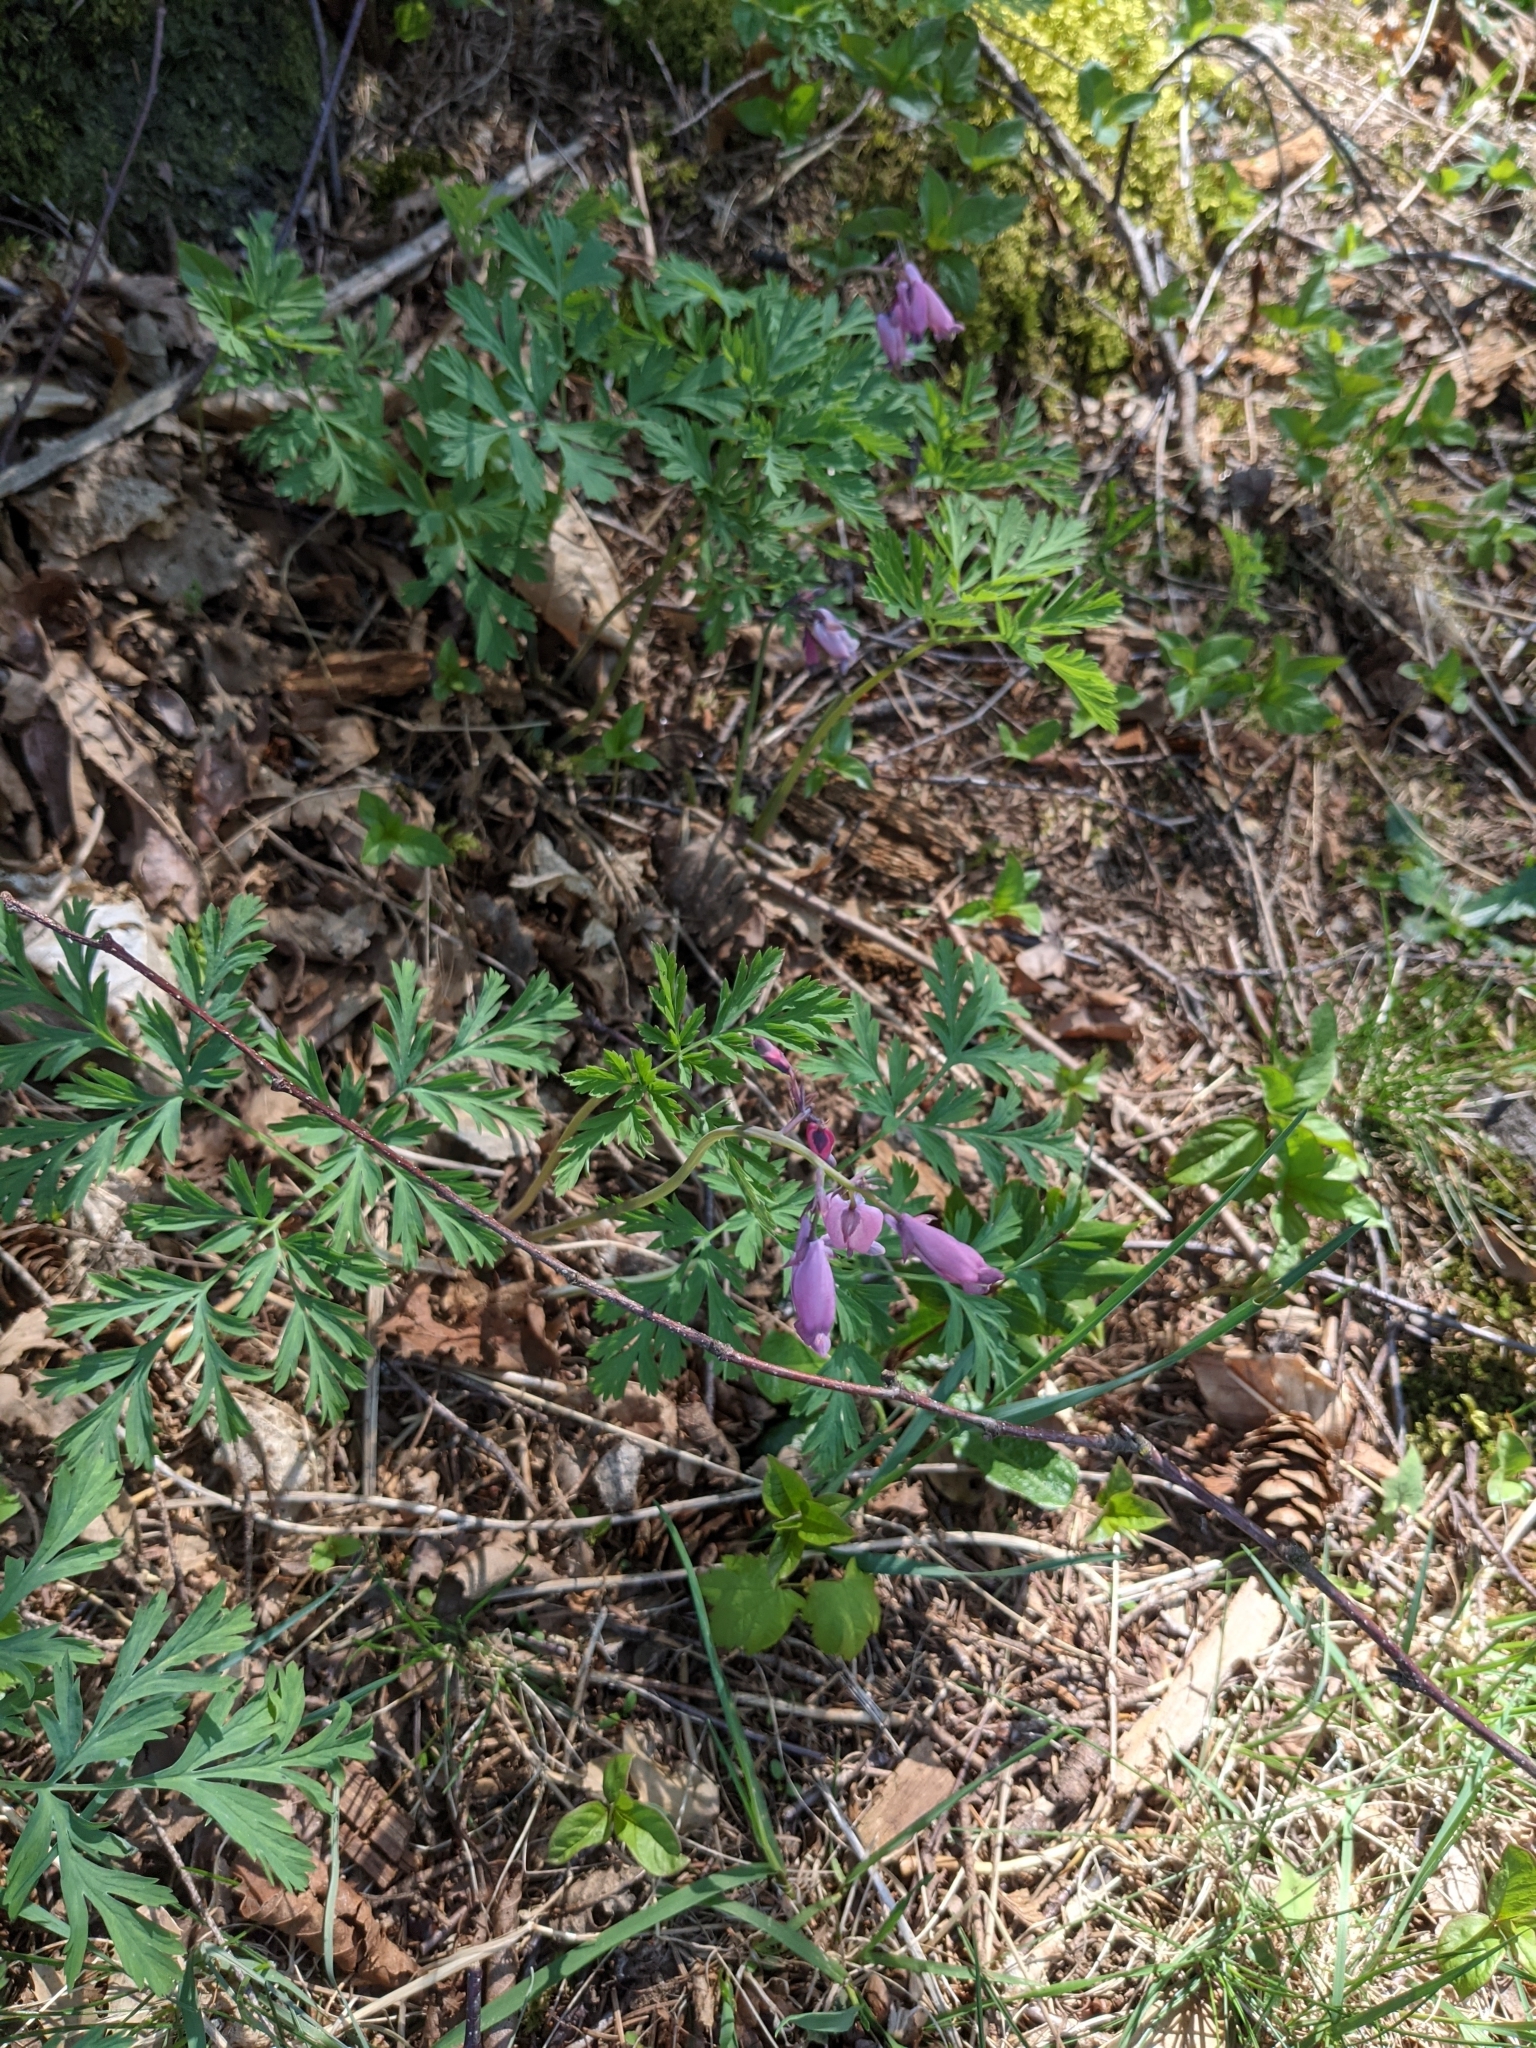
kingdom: Plantae
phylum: Tracheophyta
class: Magnoliopsida
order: Ranunculales
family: Papaveraceae
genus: Dicentra
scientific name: Dicentra formosa
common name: Bleeding-heart
